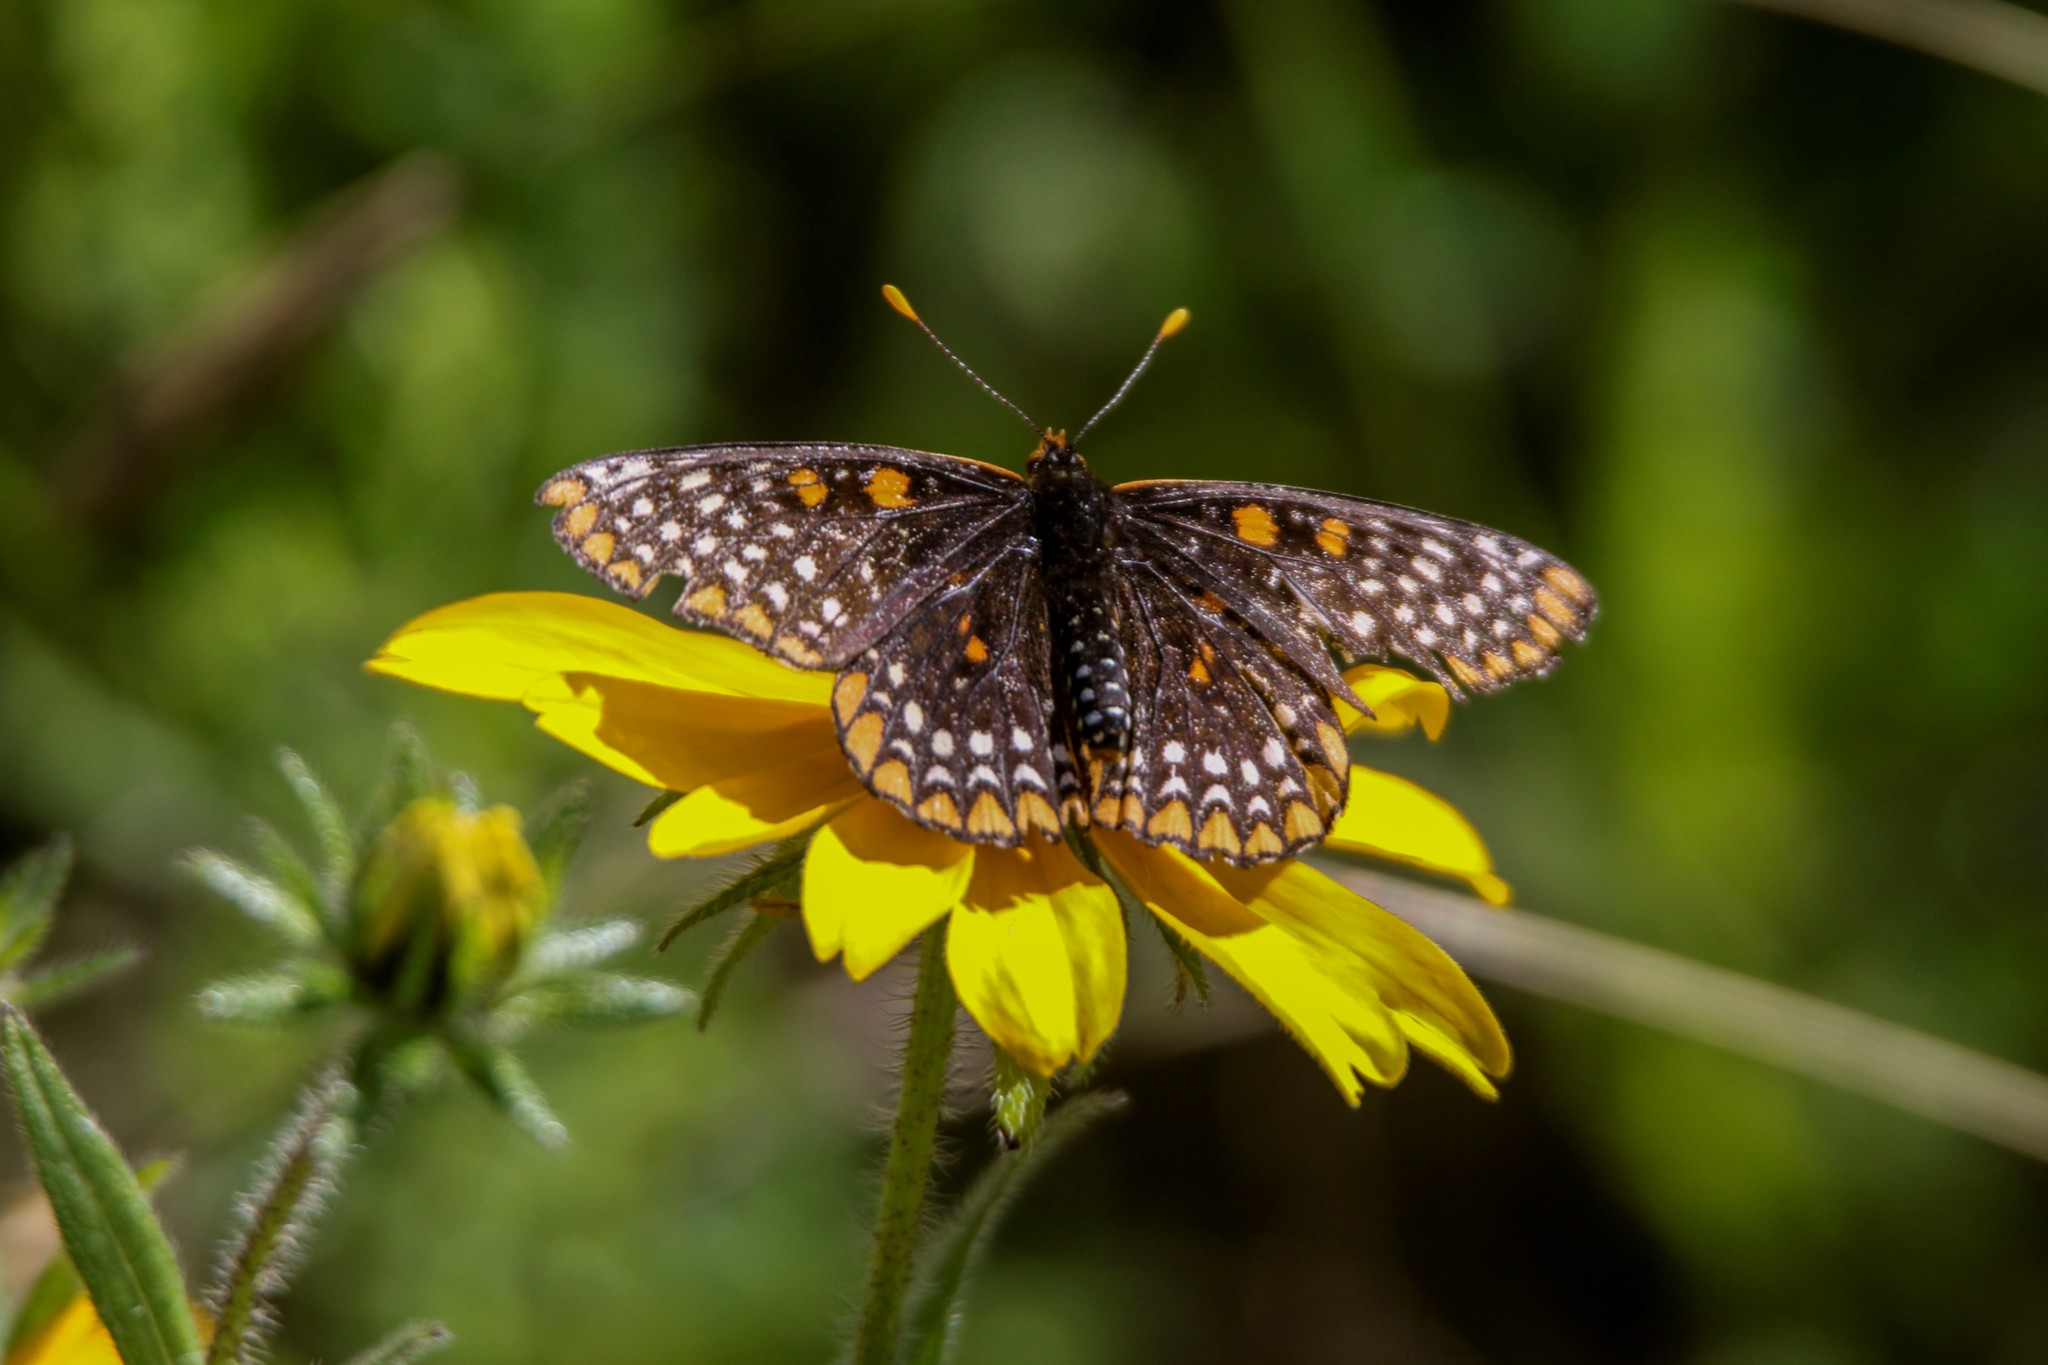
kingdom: Animalia
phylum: Arthropoda
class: Insecta
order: Lepidoptera
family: Nymphalidae
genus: Euphydryas
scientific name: Euphydryas phaeton
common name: Baltimore checkerspot
